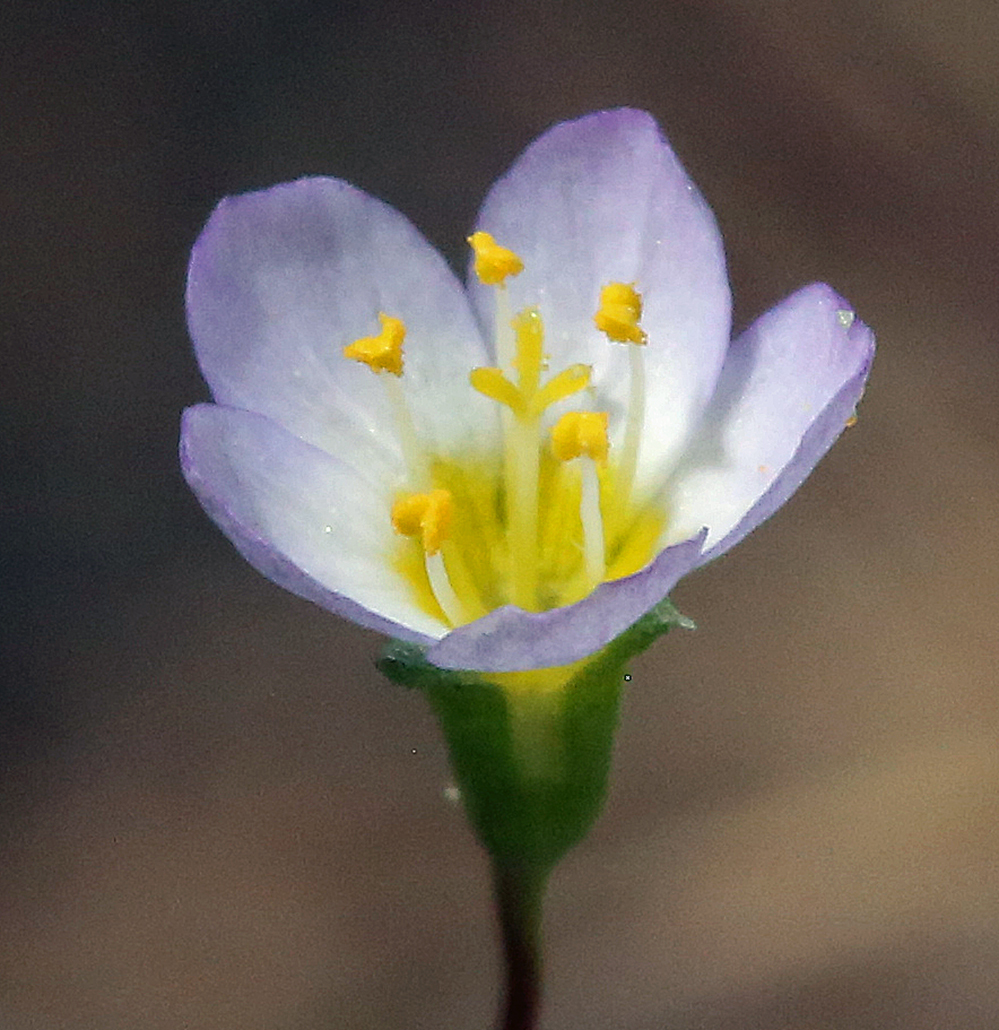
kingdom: Plantae
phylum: Tracheophyta
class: Magnoliopsida
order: Ericales
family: Polemoniaceae
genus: Leptosiphon
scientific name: Leptosiphon septentrionalis
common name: Northern linanthus
